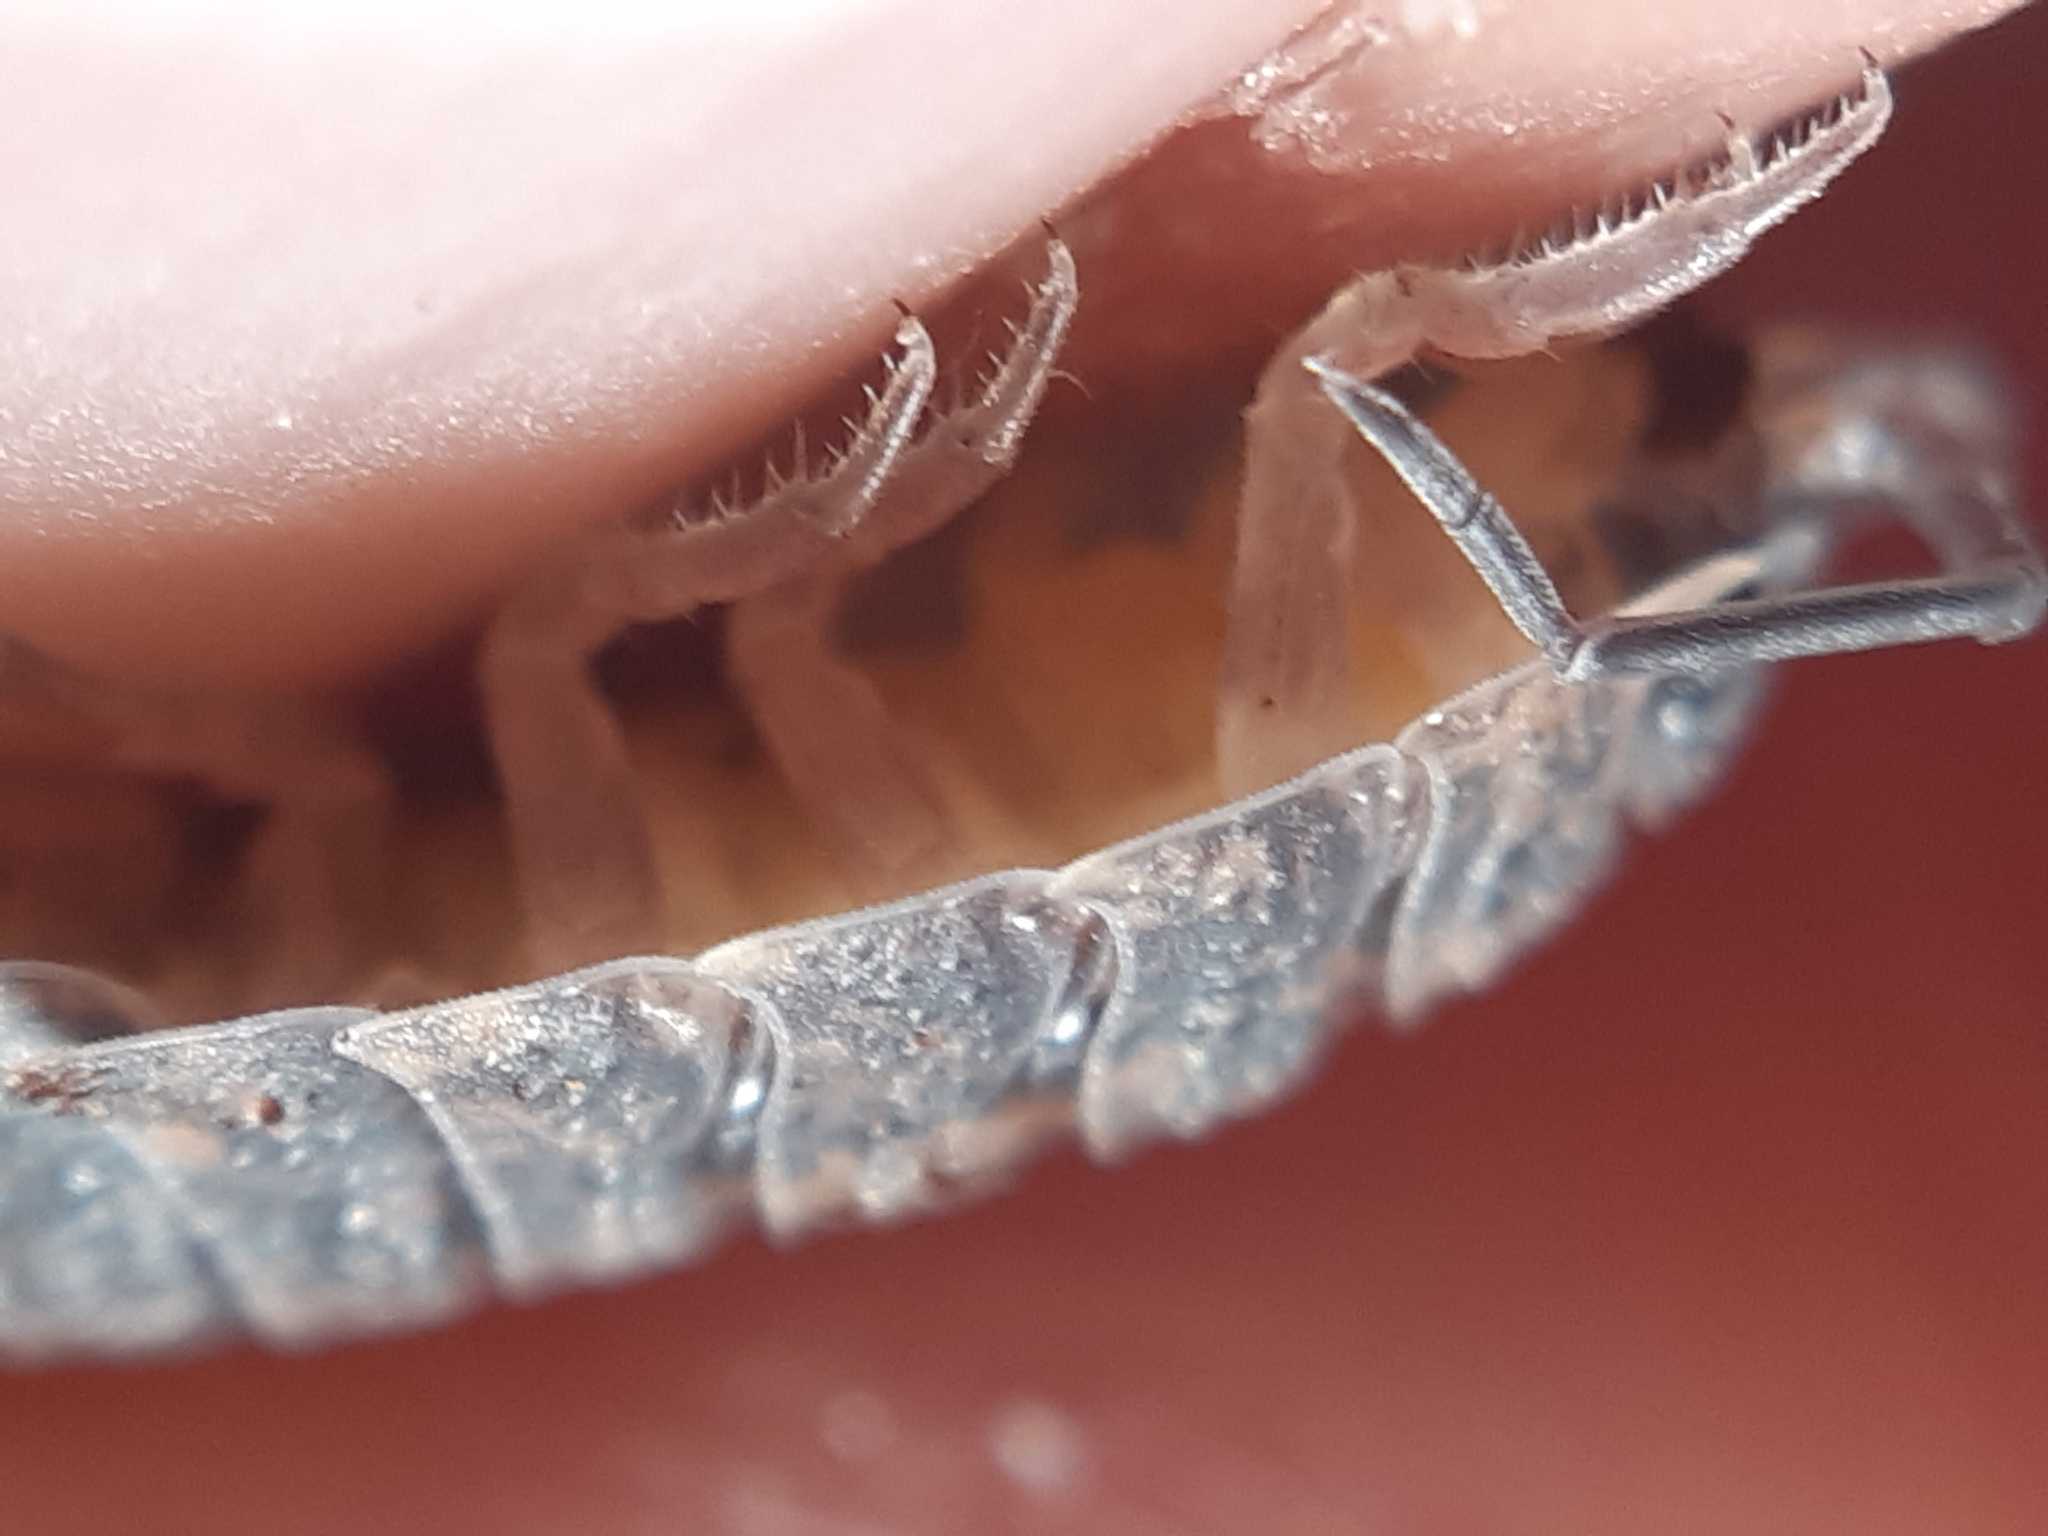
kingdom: Animalia
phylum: Arthropoda
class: Malacostraca
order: Isopoda
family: Porcellionidae
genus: Porcellio
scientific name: Porcellio scaber
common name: Common rough woodlouse
